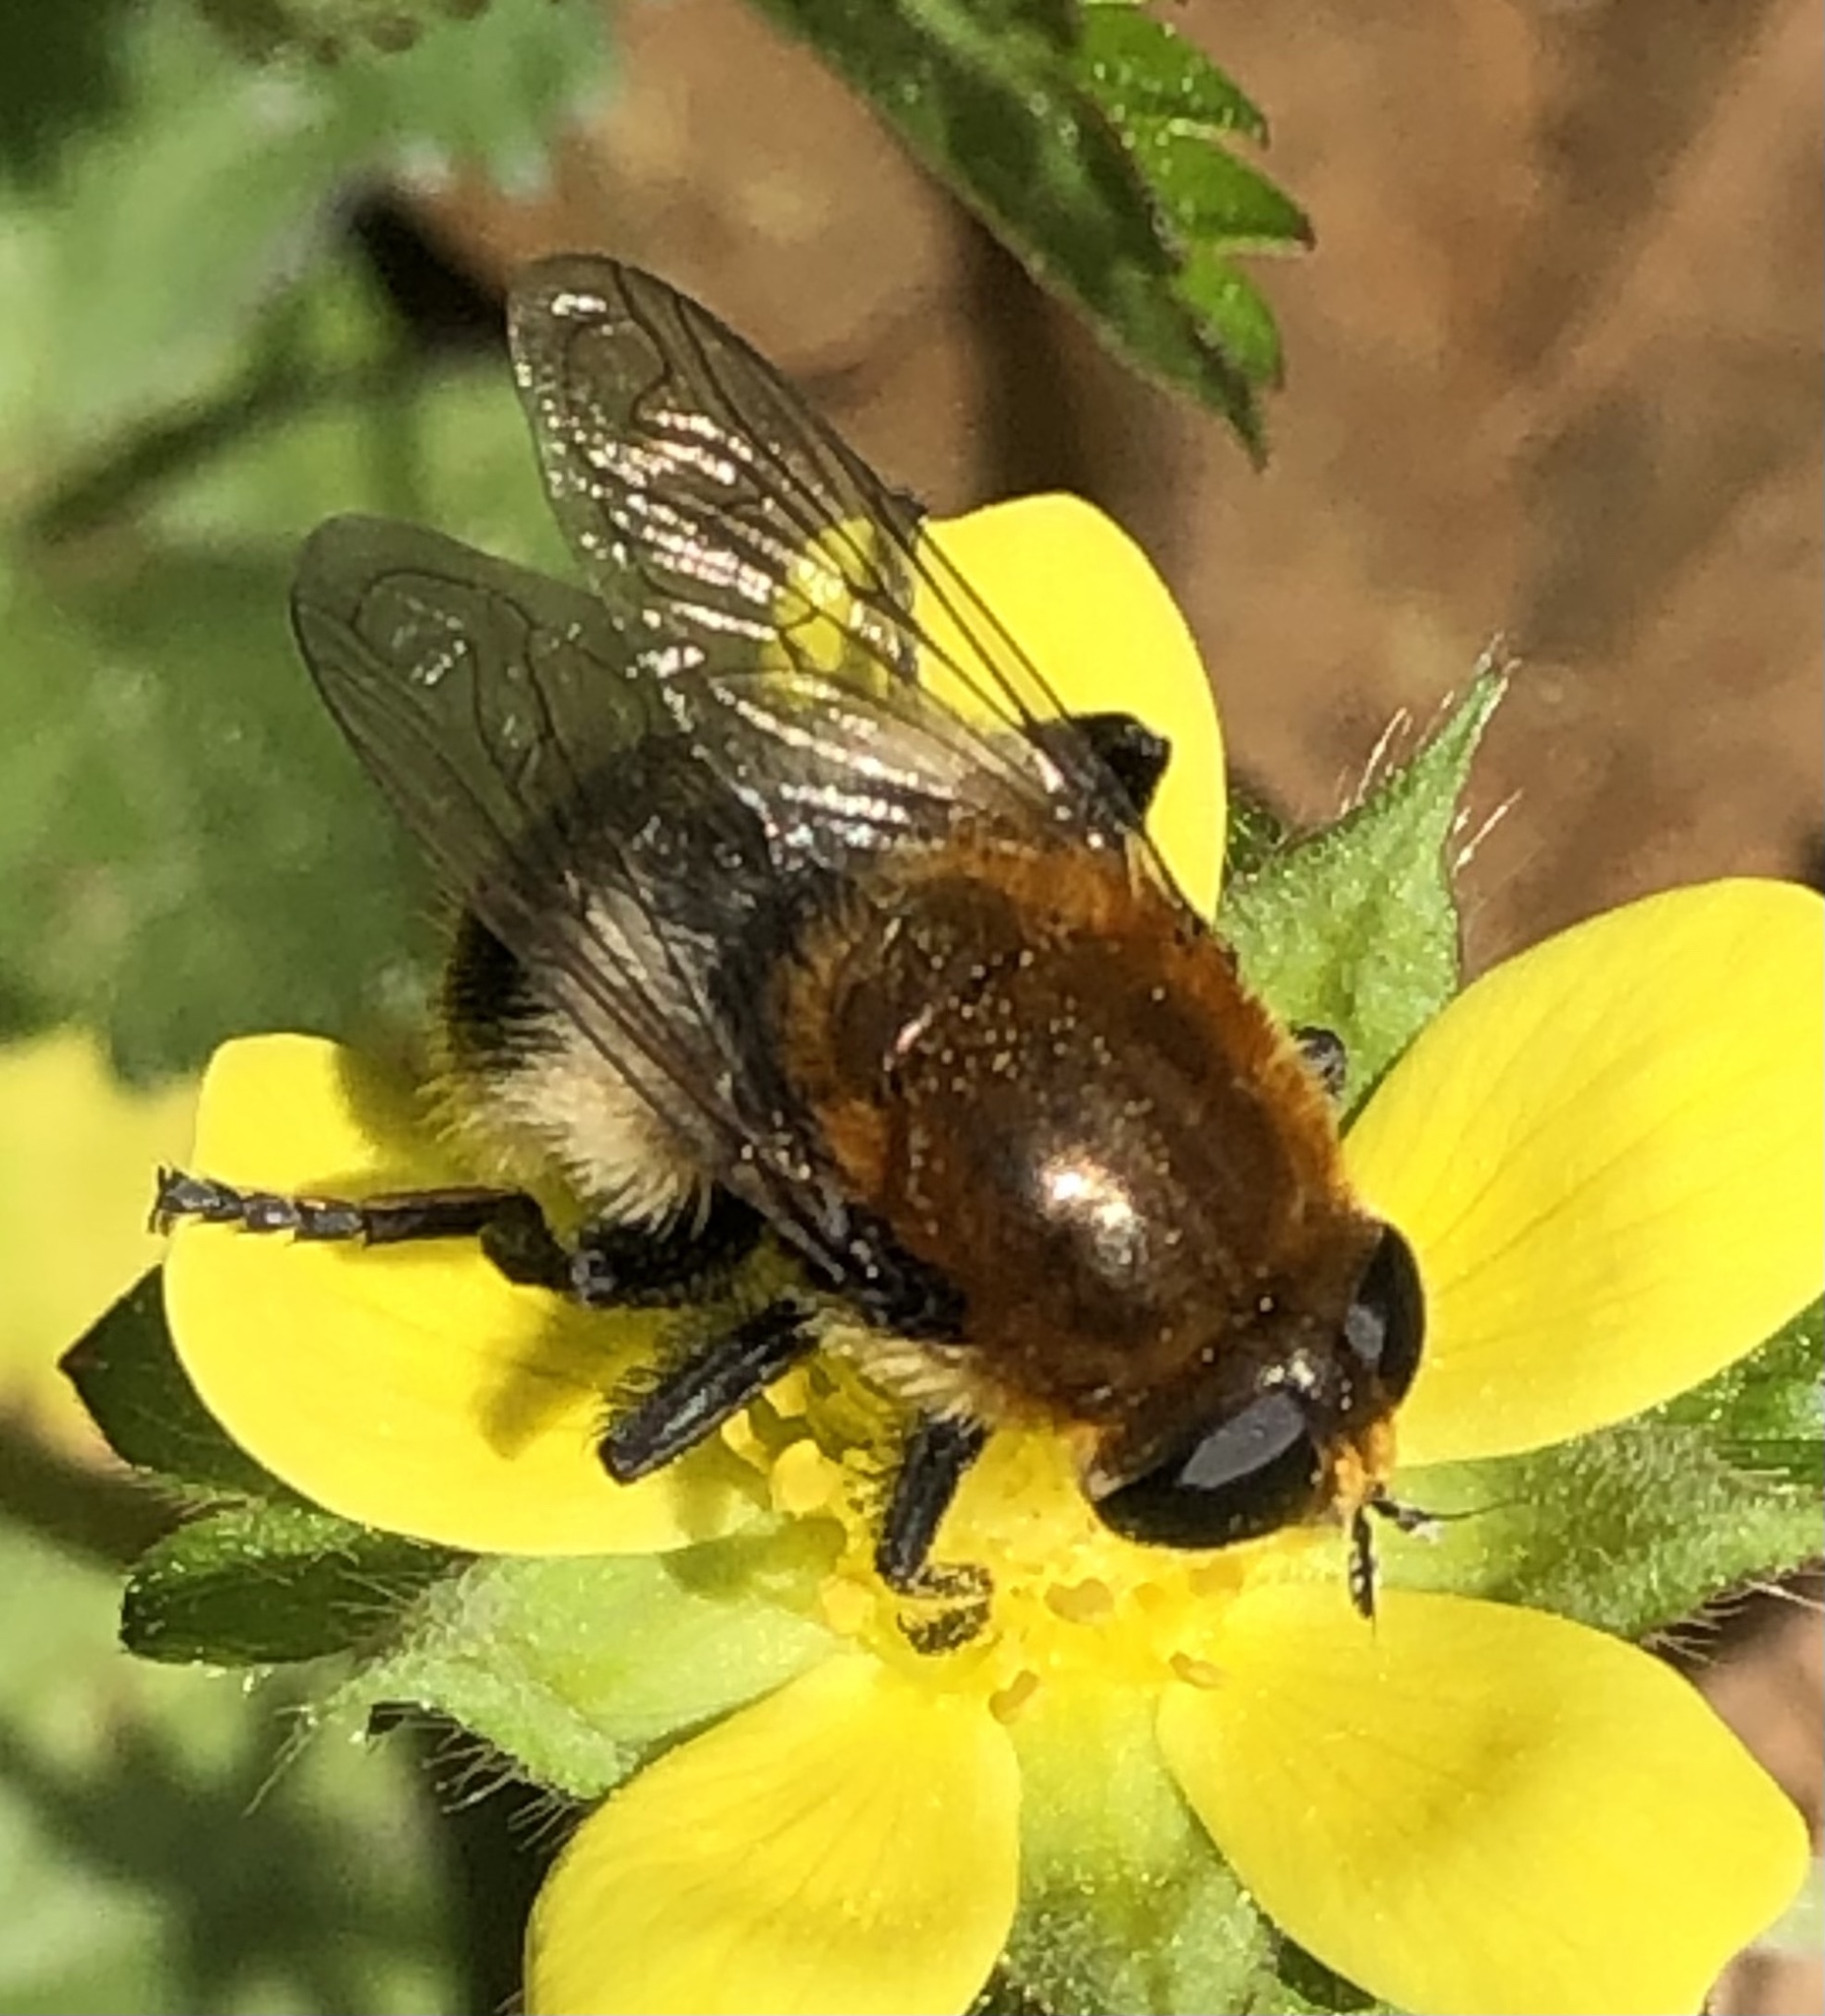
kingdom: Animalia
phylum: Arthropoda
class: Insecta
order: Diptera
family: Syrphidae
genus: Merodon
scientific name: Merodon equestris
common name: Greater bulb-fly
